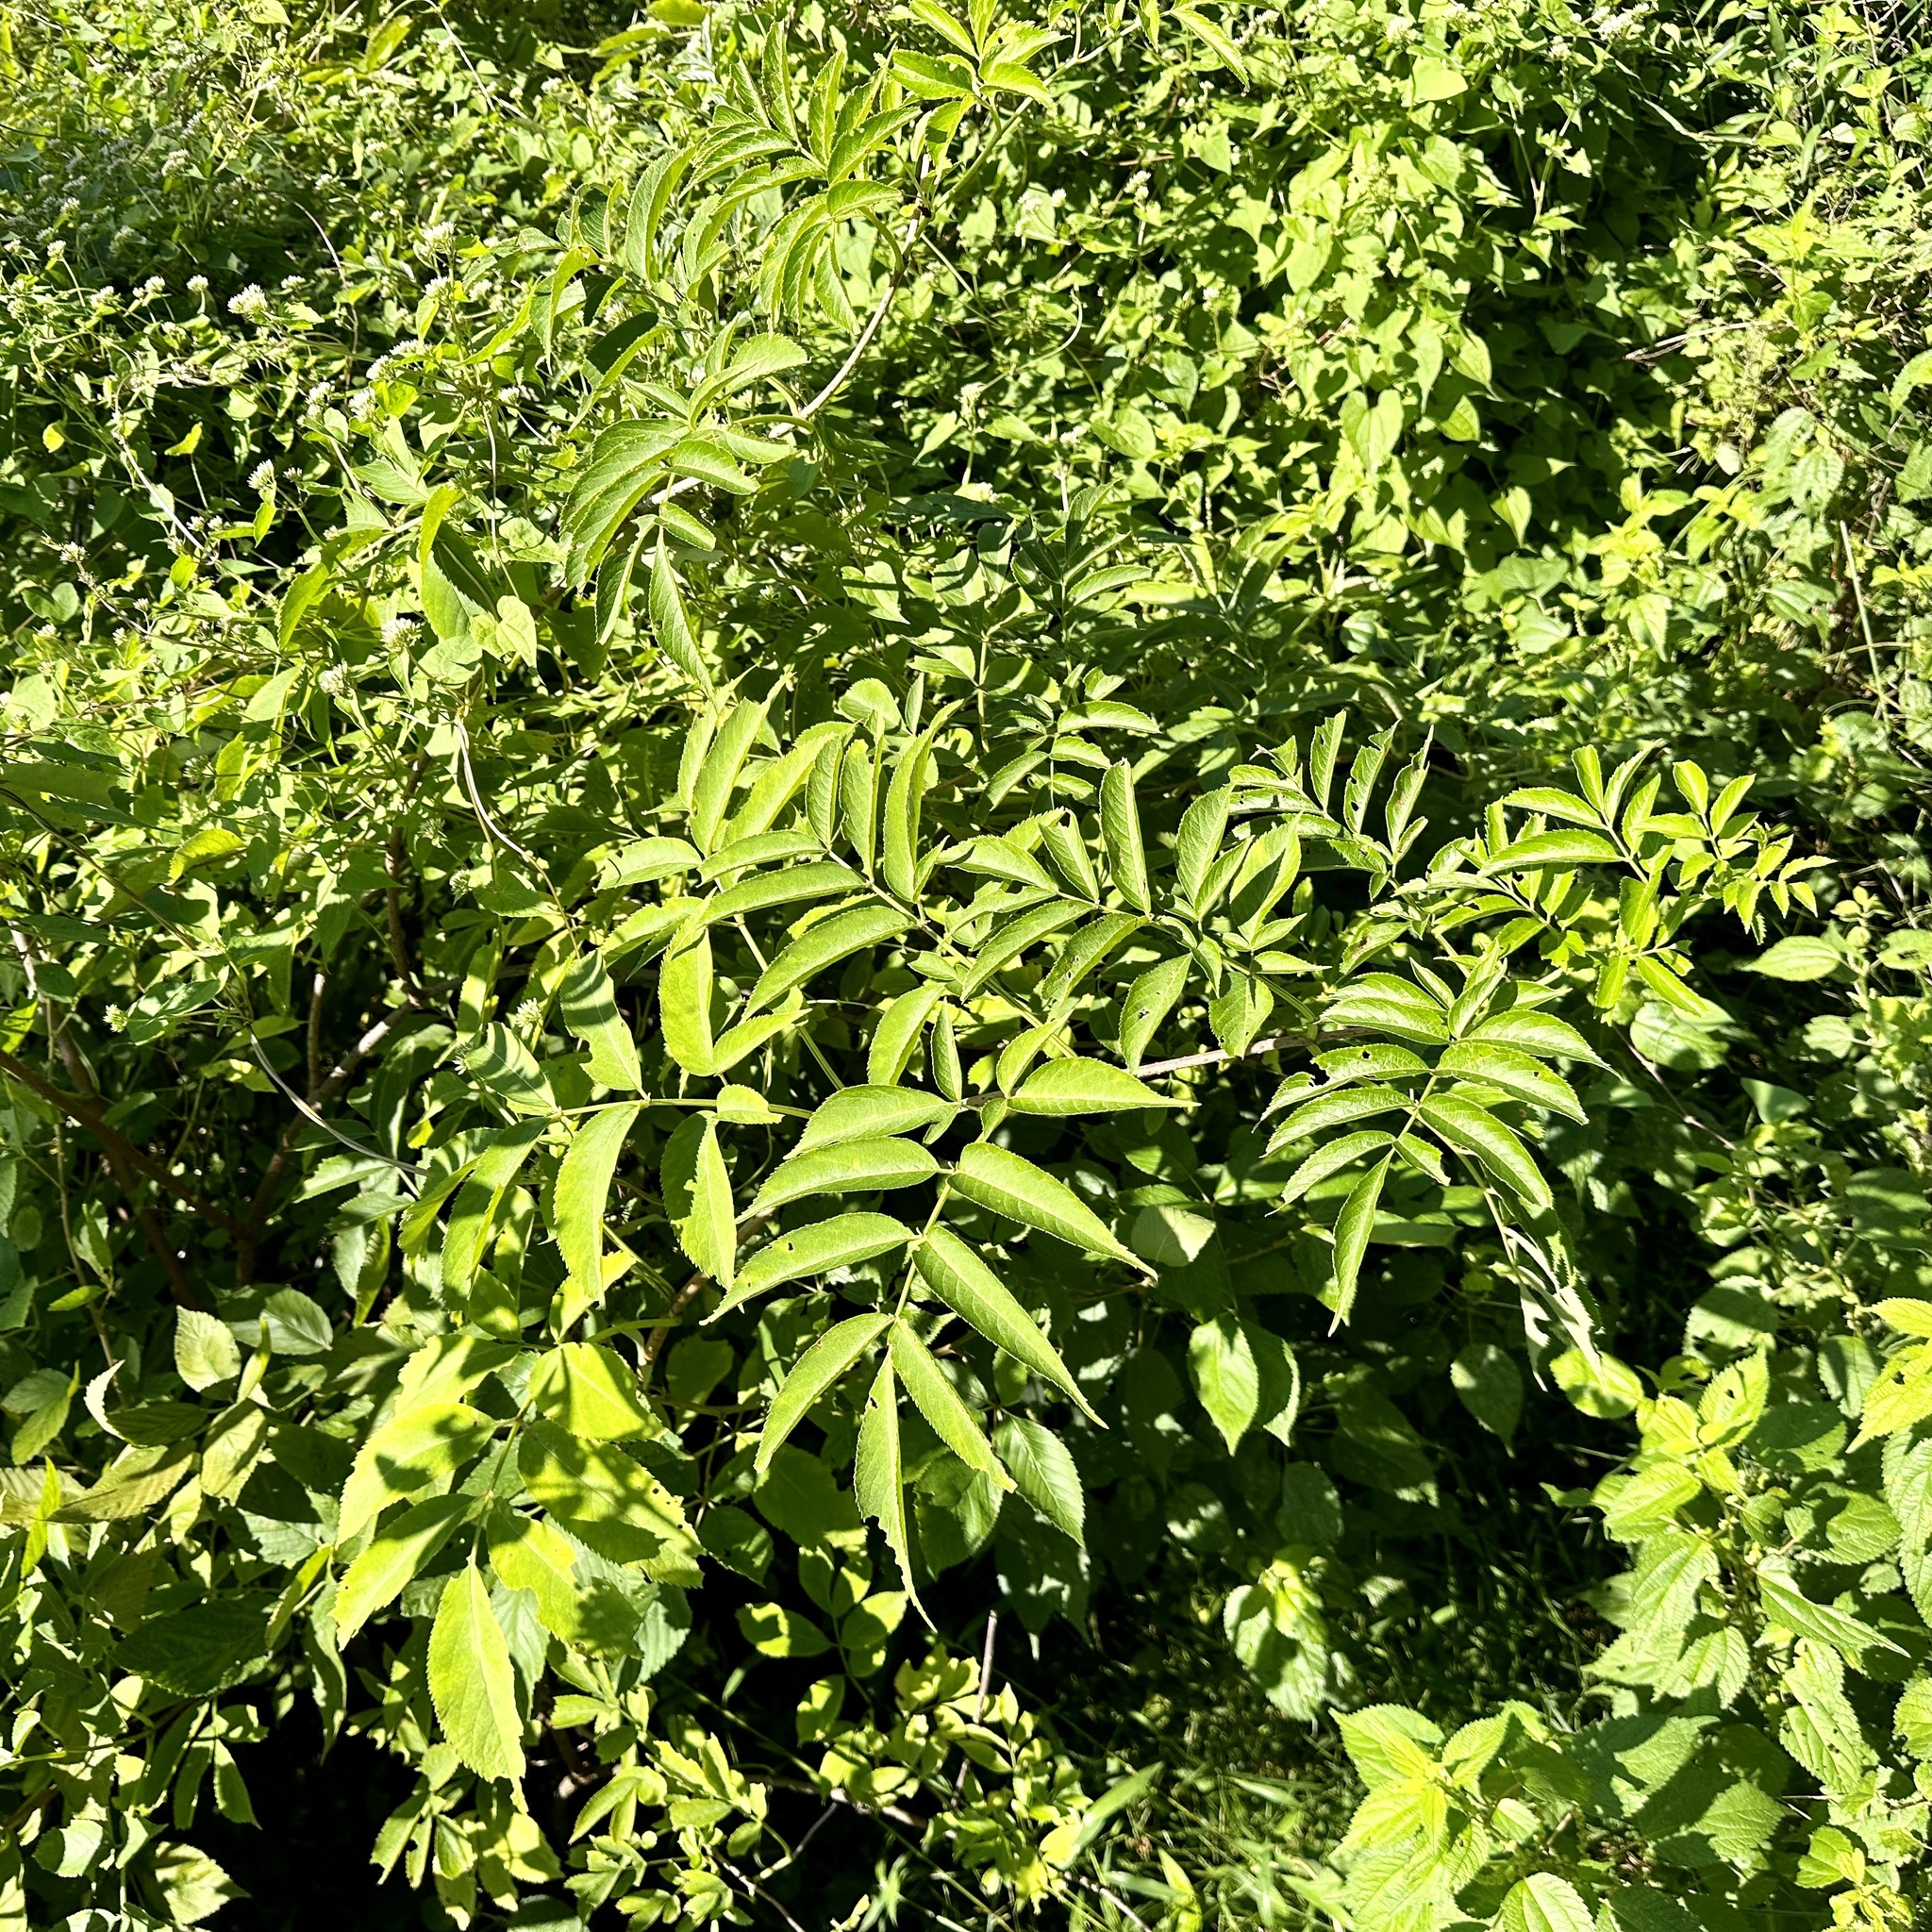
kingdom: Plantae
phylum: Tracheophyta
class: Magnoliopsida
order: Dipsacales
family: Viburnaceae
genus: Sambucus
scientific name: Sambucus canadensis
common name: American elder
